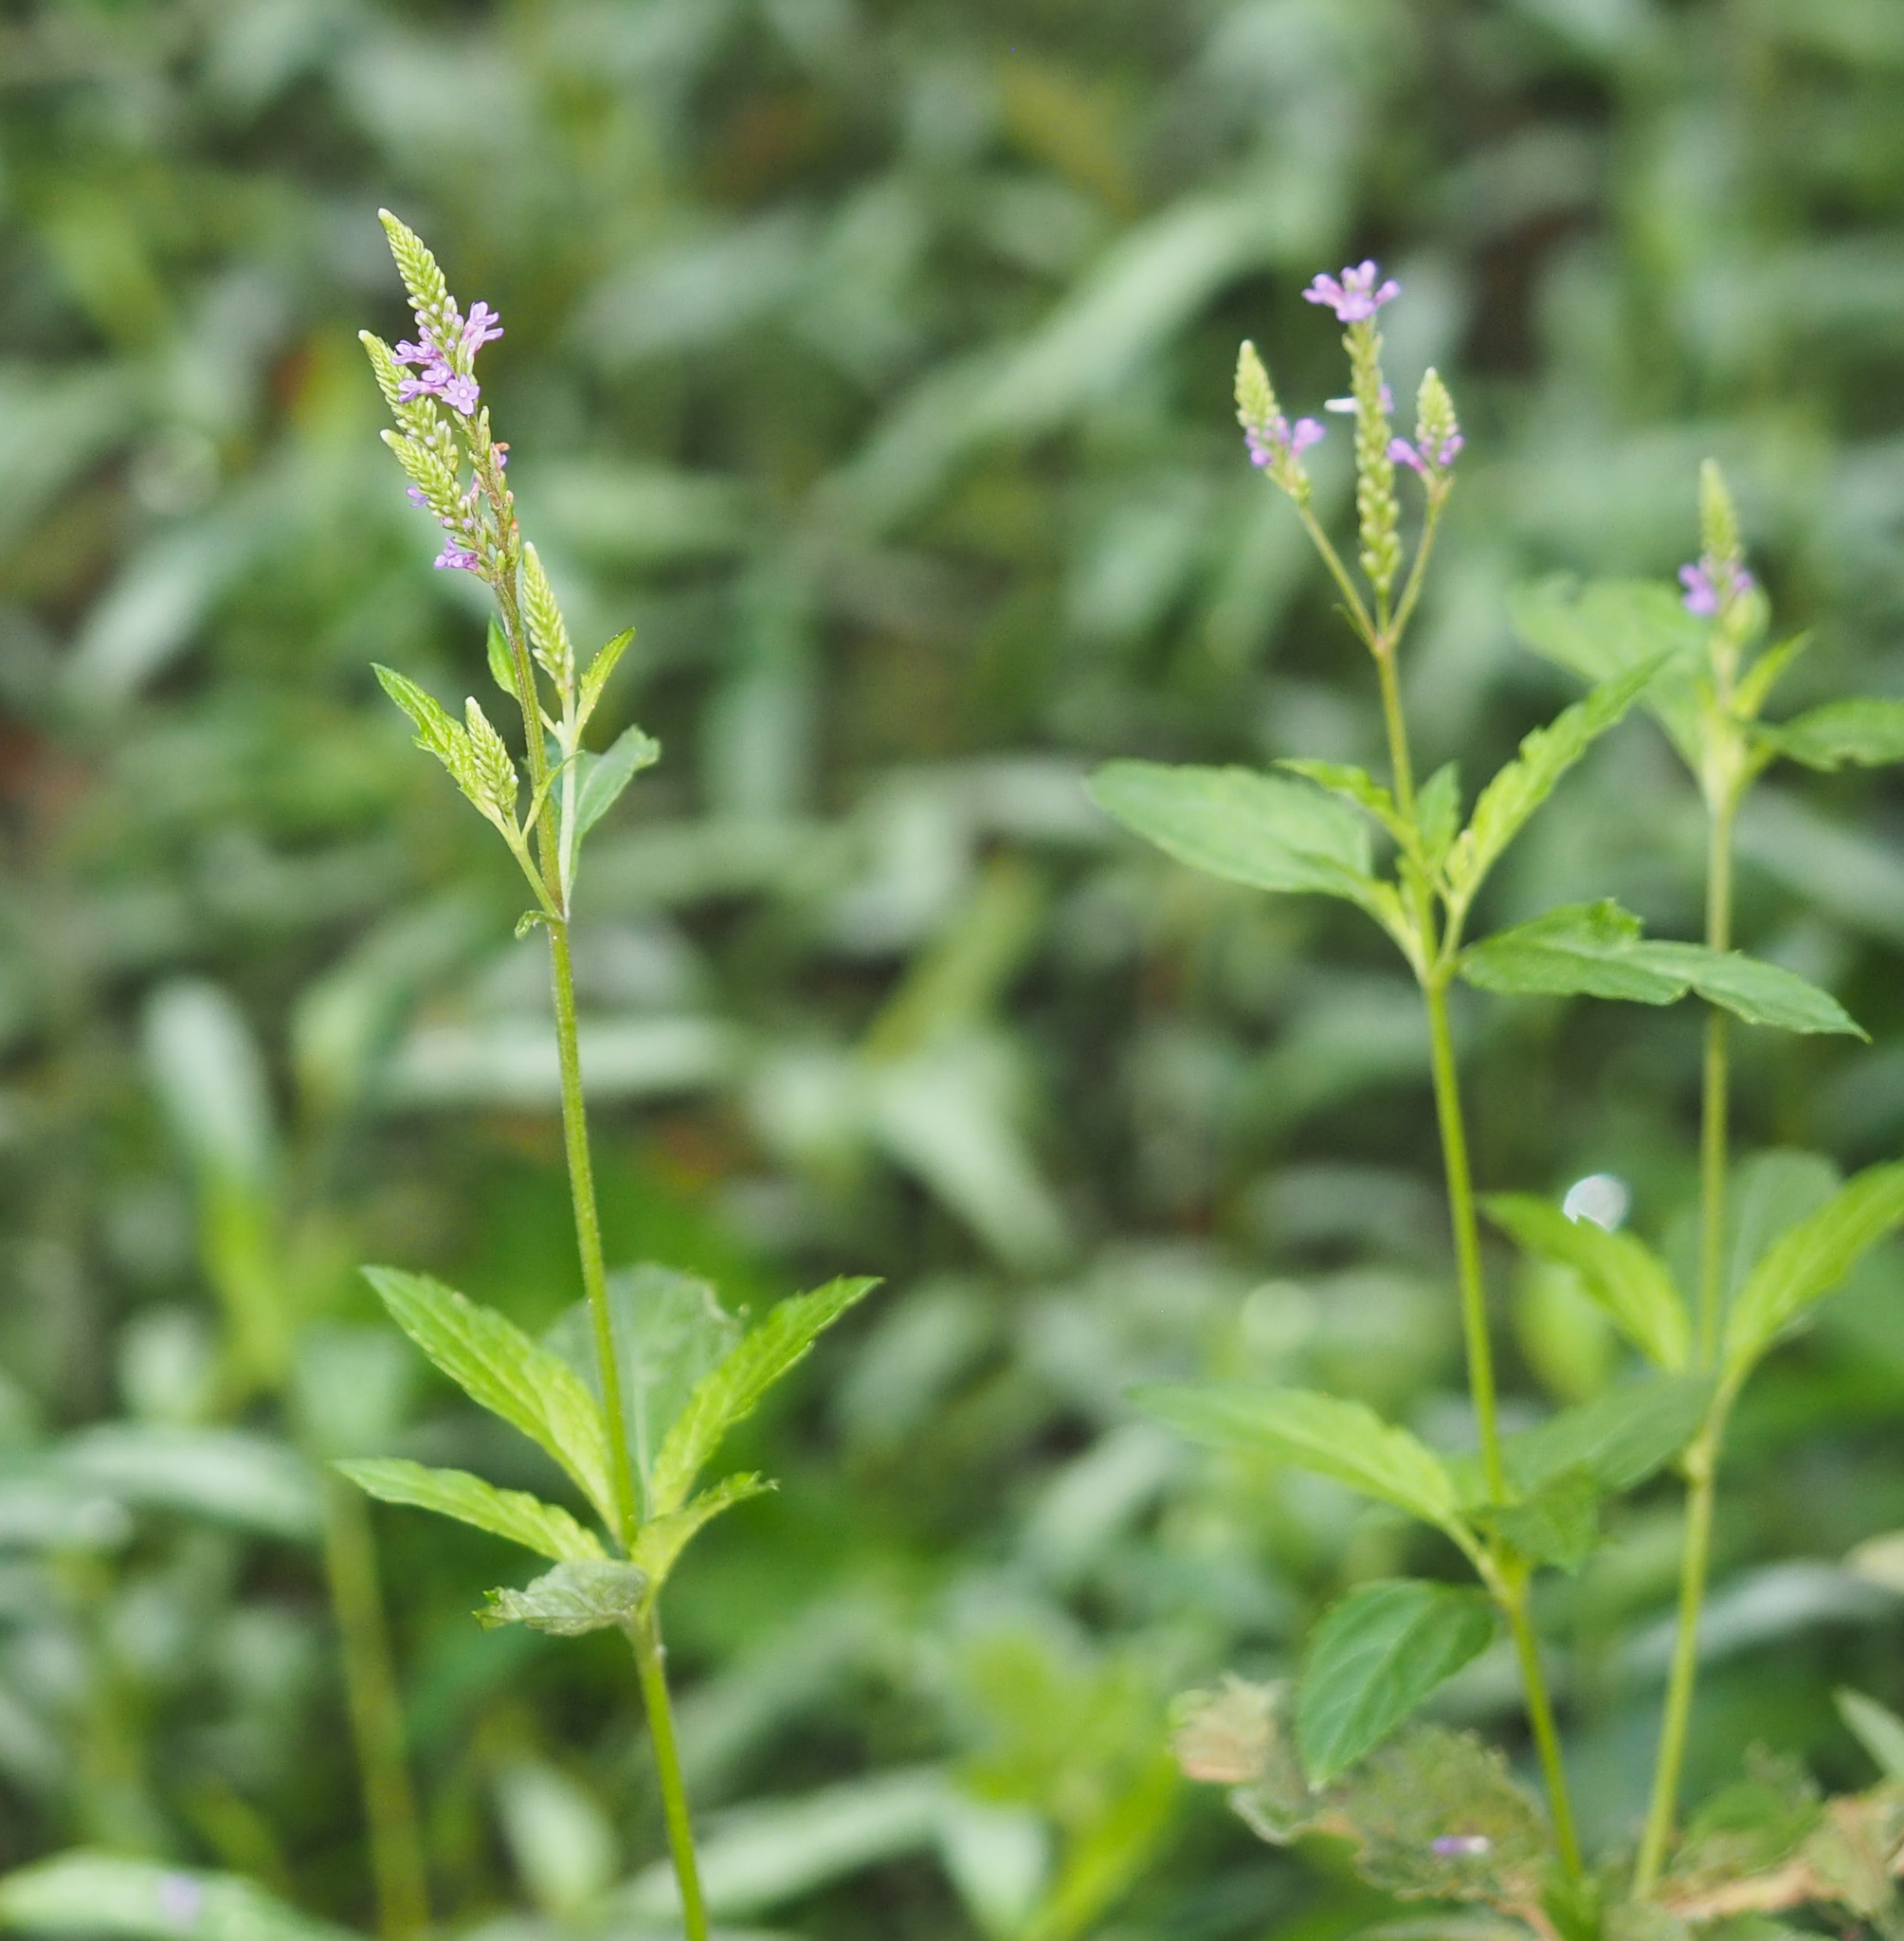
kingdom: Plantae
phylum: Tracheophyta
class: Magnoliopsida
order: Lamiales
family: Verbenaceae
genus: Verbena
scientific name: Verbena hastata
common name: American blue vervain
